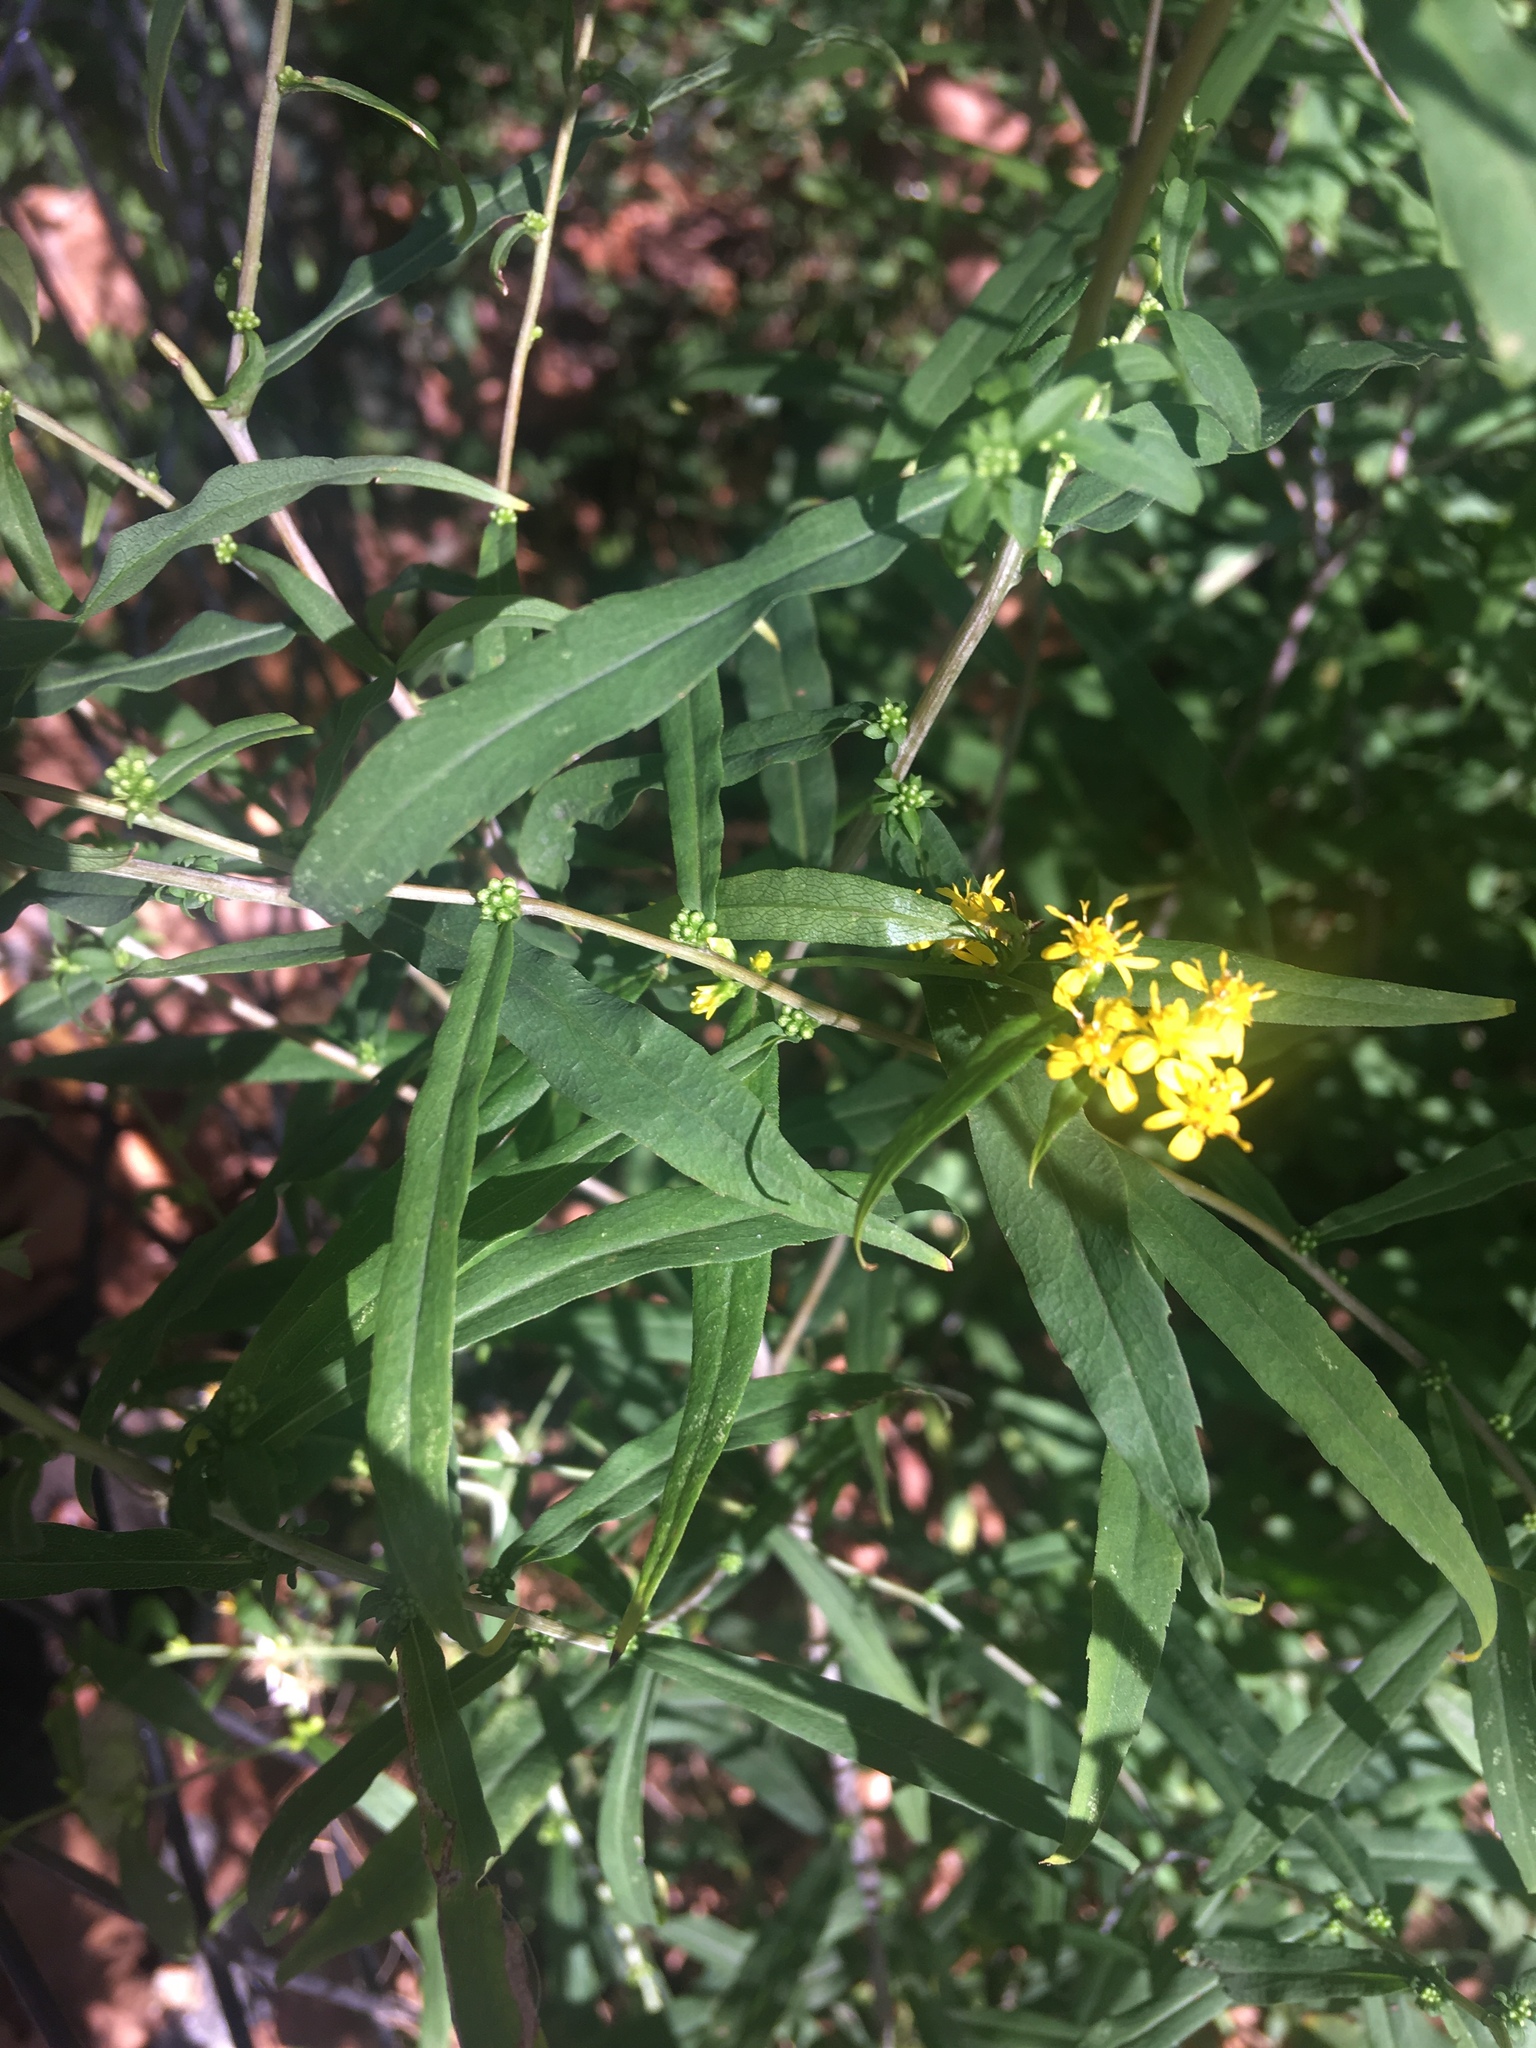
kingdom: Plantae
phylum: Tracheophyta
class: Magnoliopsida
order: Asterales
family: Asteraceae
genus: Solidago
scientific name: Solidago caesia
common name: Woodland goldenrod
